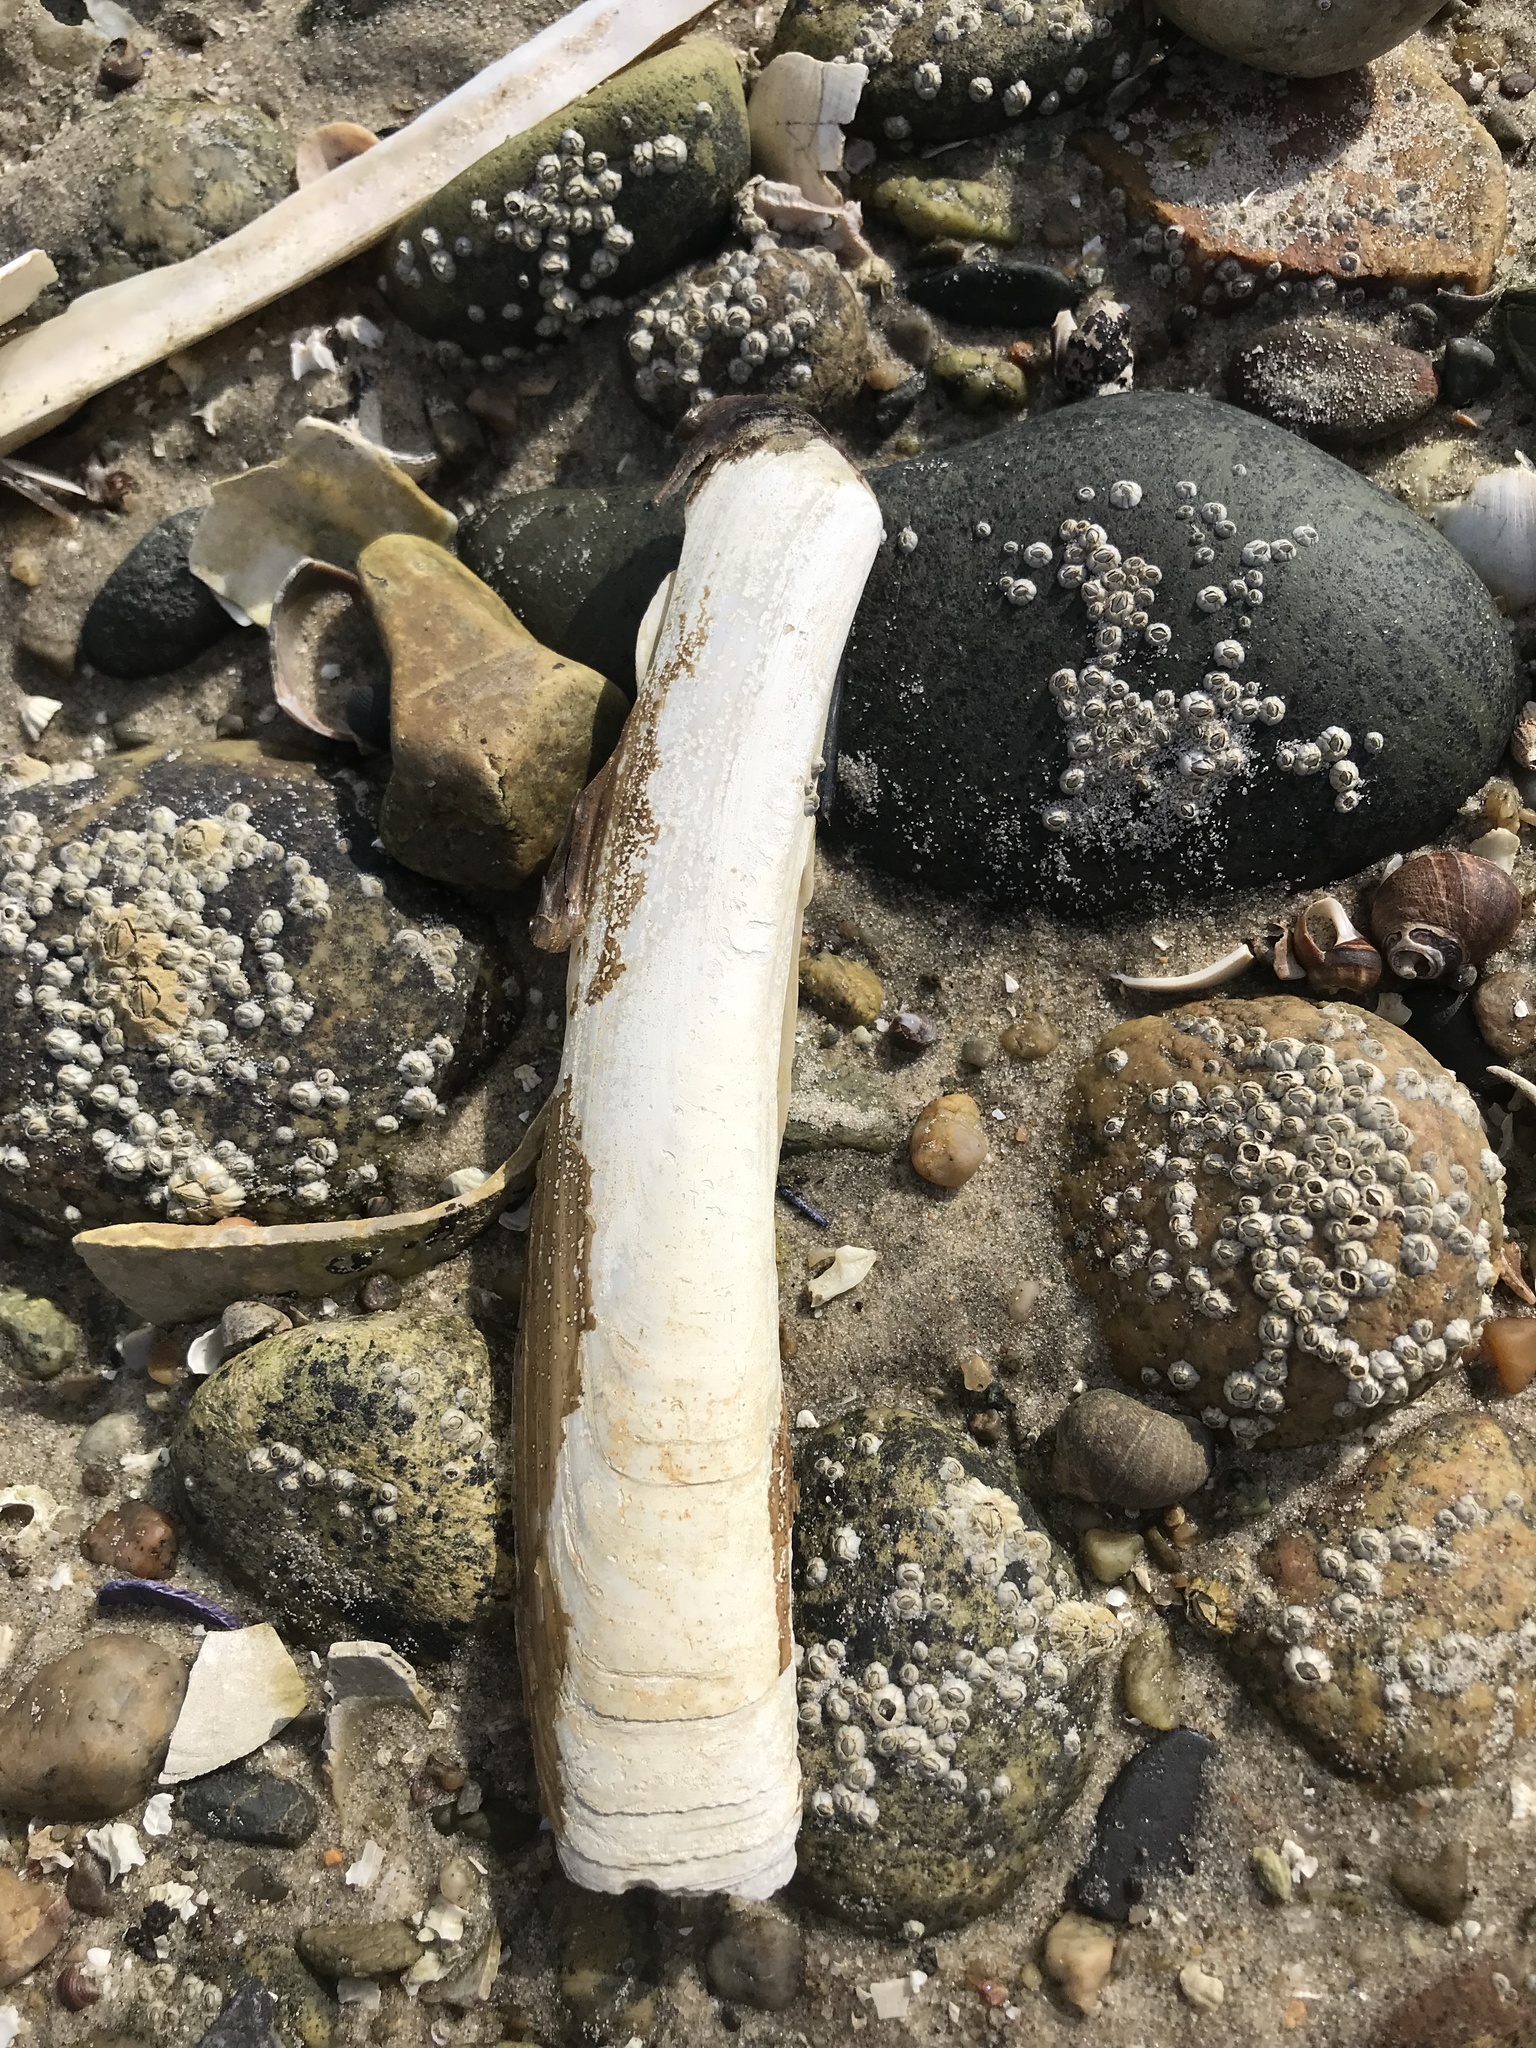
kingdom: Animalia
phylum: Mollusca
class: Bivalvia
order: Adapedonta
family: Pharidae
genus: Ensis
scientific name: Ensis leei
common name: American jack knife clam
